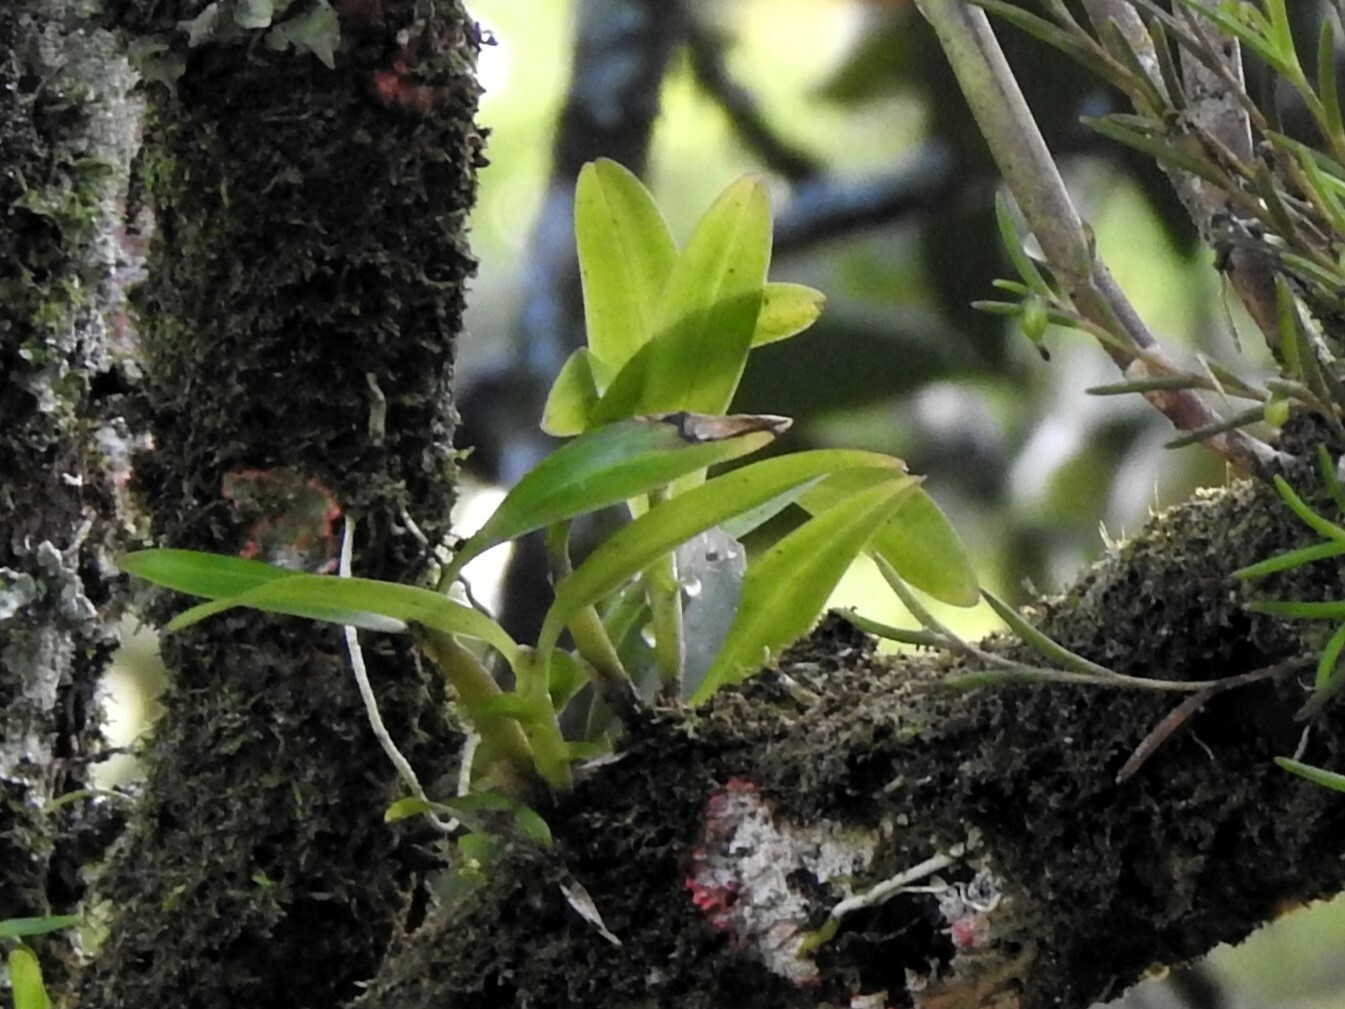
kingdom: Plantae
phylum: Tracheophyta
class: Liliopsida
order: Asparagales
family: Orchidaceae
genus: Scaphyglottis
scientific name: Scaphyglottis modesta
